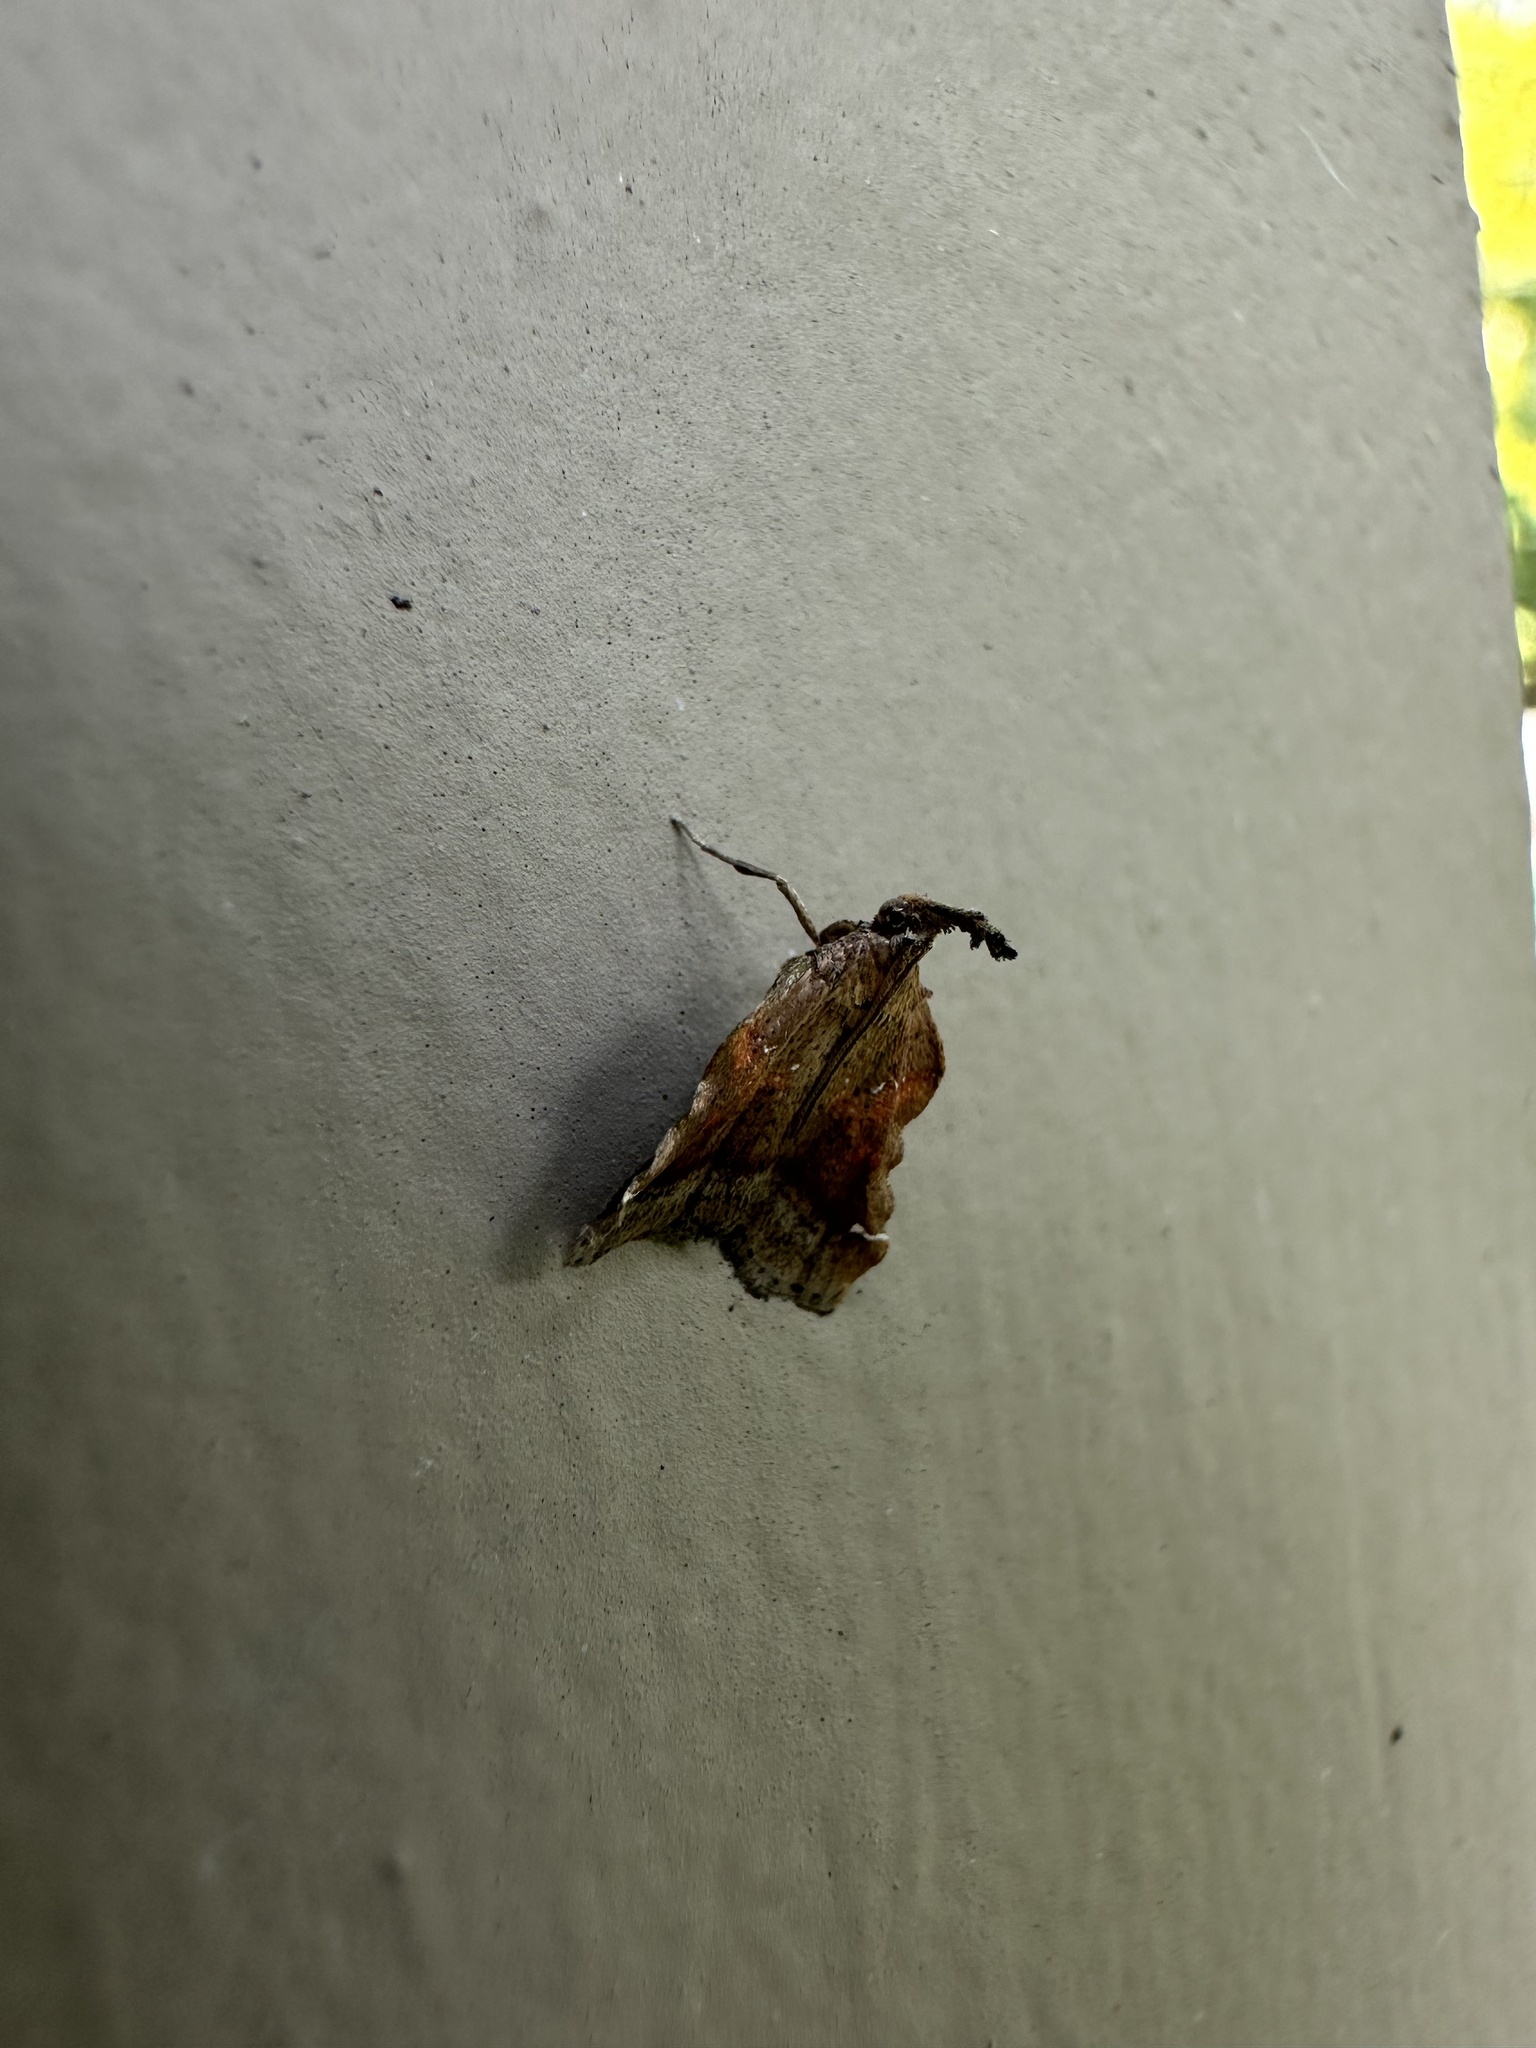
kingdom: Animalia
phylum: Arthropoda
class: Insecta
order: Lepidoptera
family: Pyralidae
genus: Clydonopteron
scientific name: Clydonopteron sacculana
